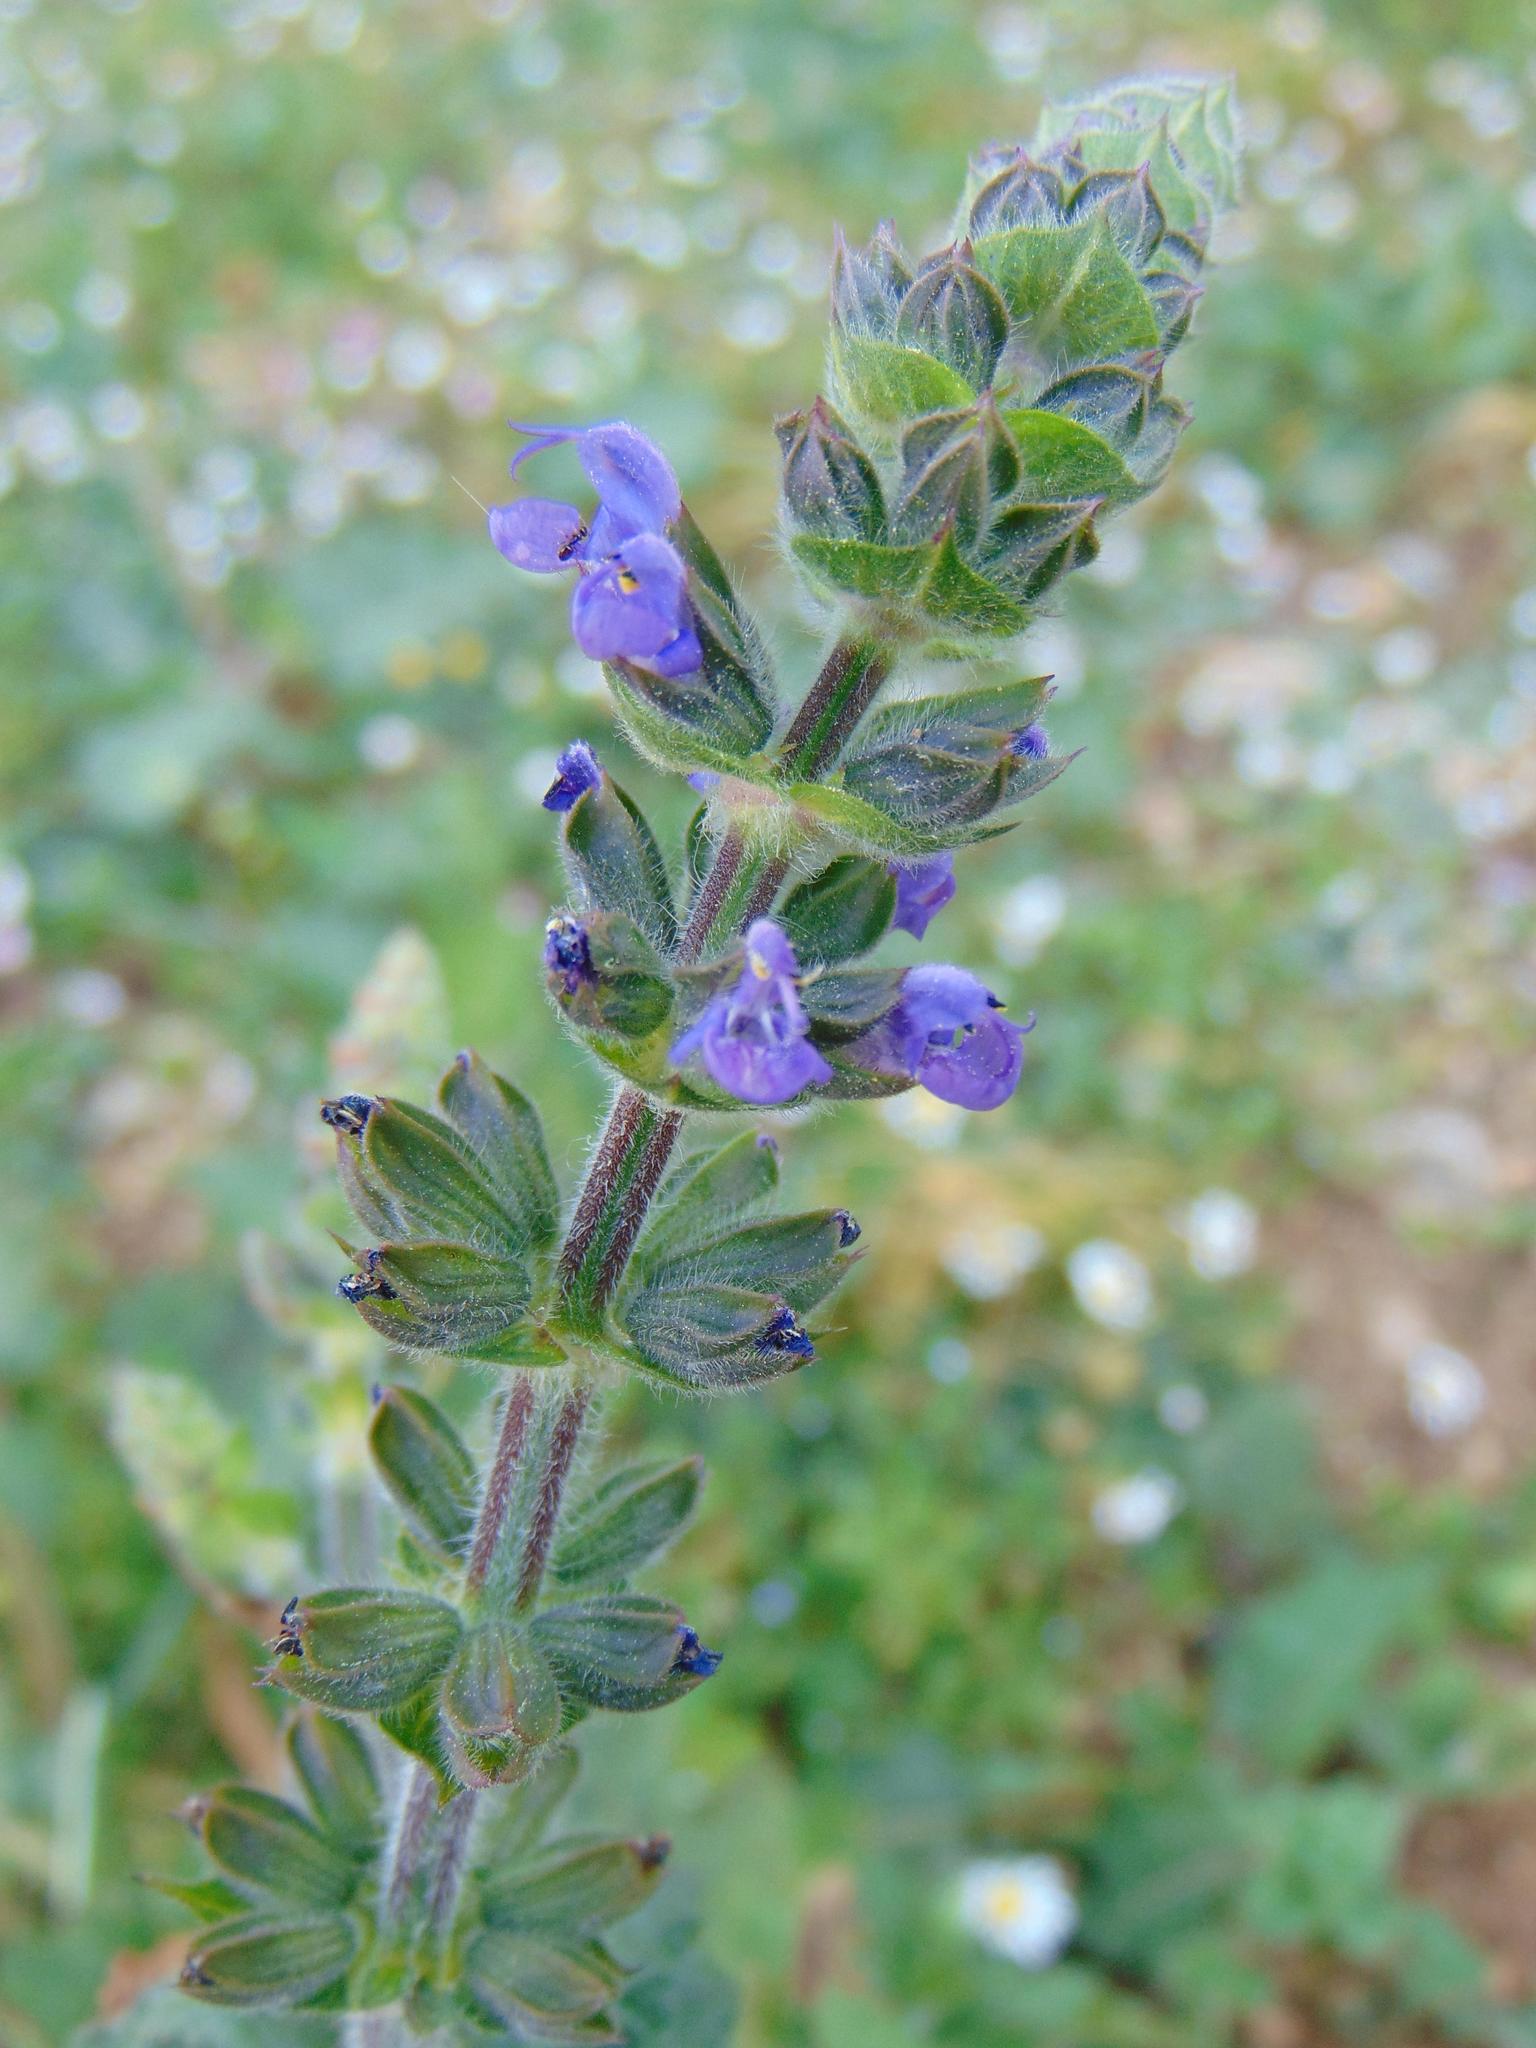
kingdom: Plantae
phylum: Tracheophyta
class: Magnoliopsida
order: Lamiales
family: Lamiaceae
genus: Salvia
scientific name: Salvia verbenaca
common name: Wild clary
